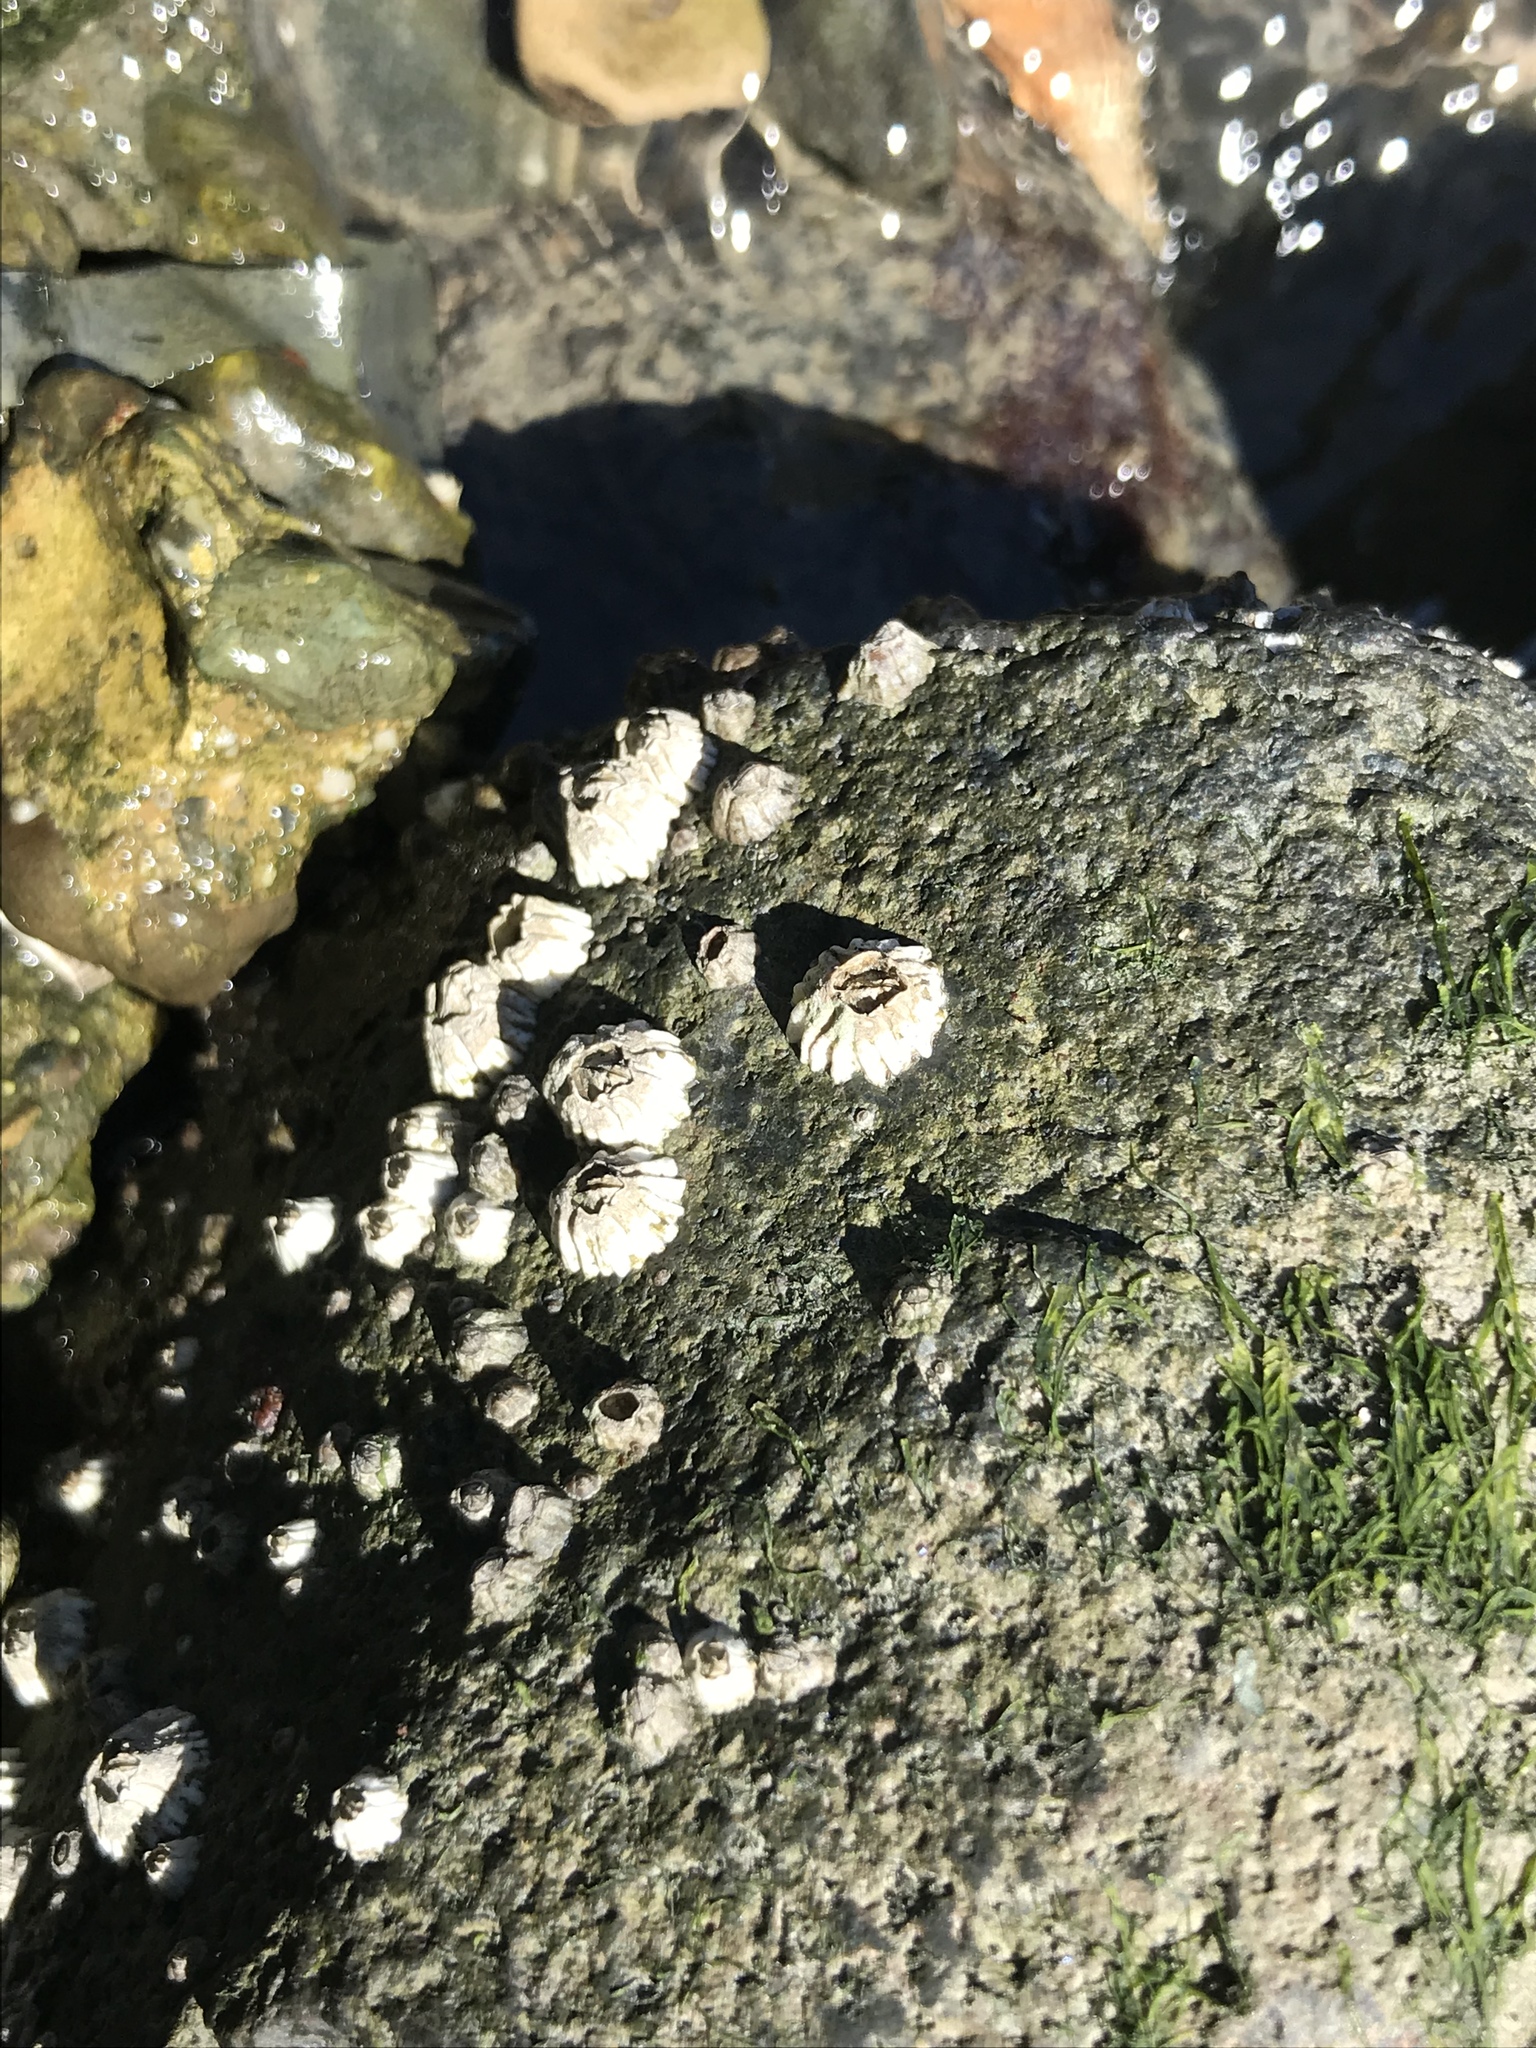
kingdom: Animalia
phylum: Arthropoda
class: Maxillopoda
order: Sessilia
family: Balanidae
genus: Balanus
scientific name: Balanus glandula
